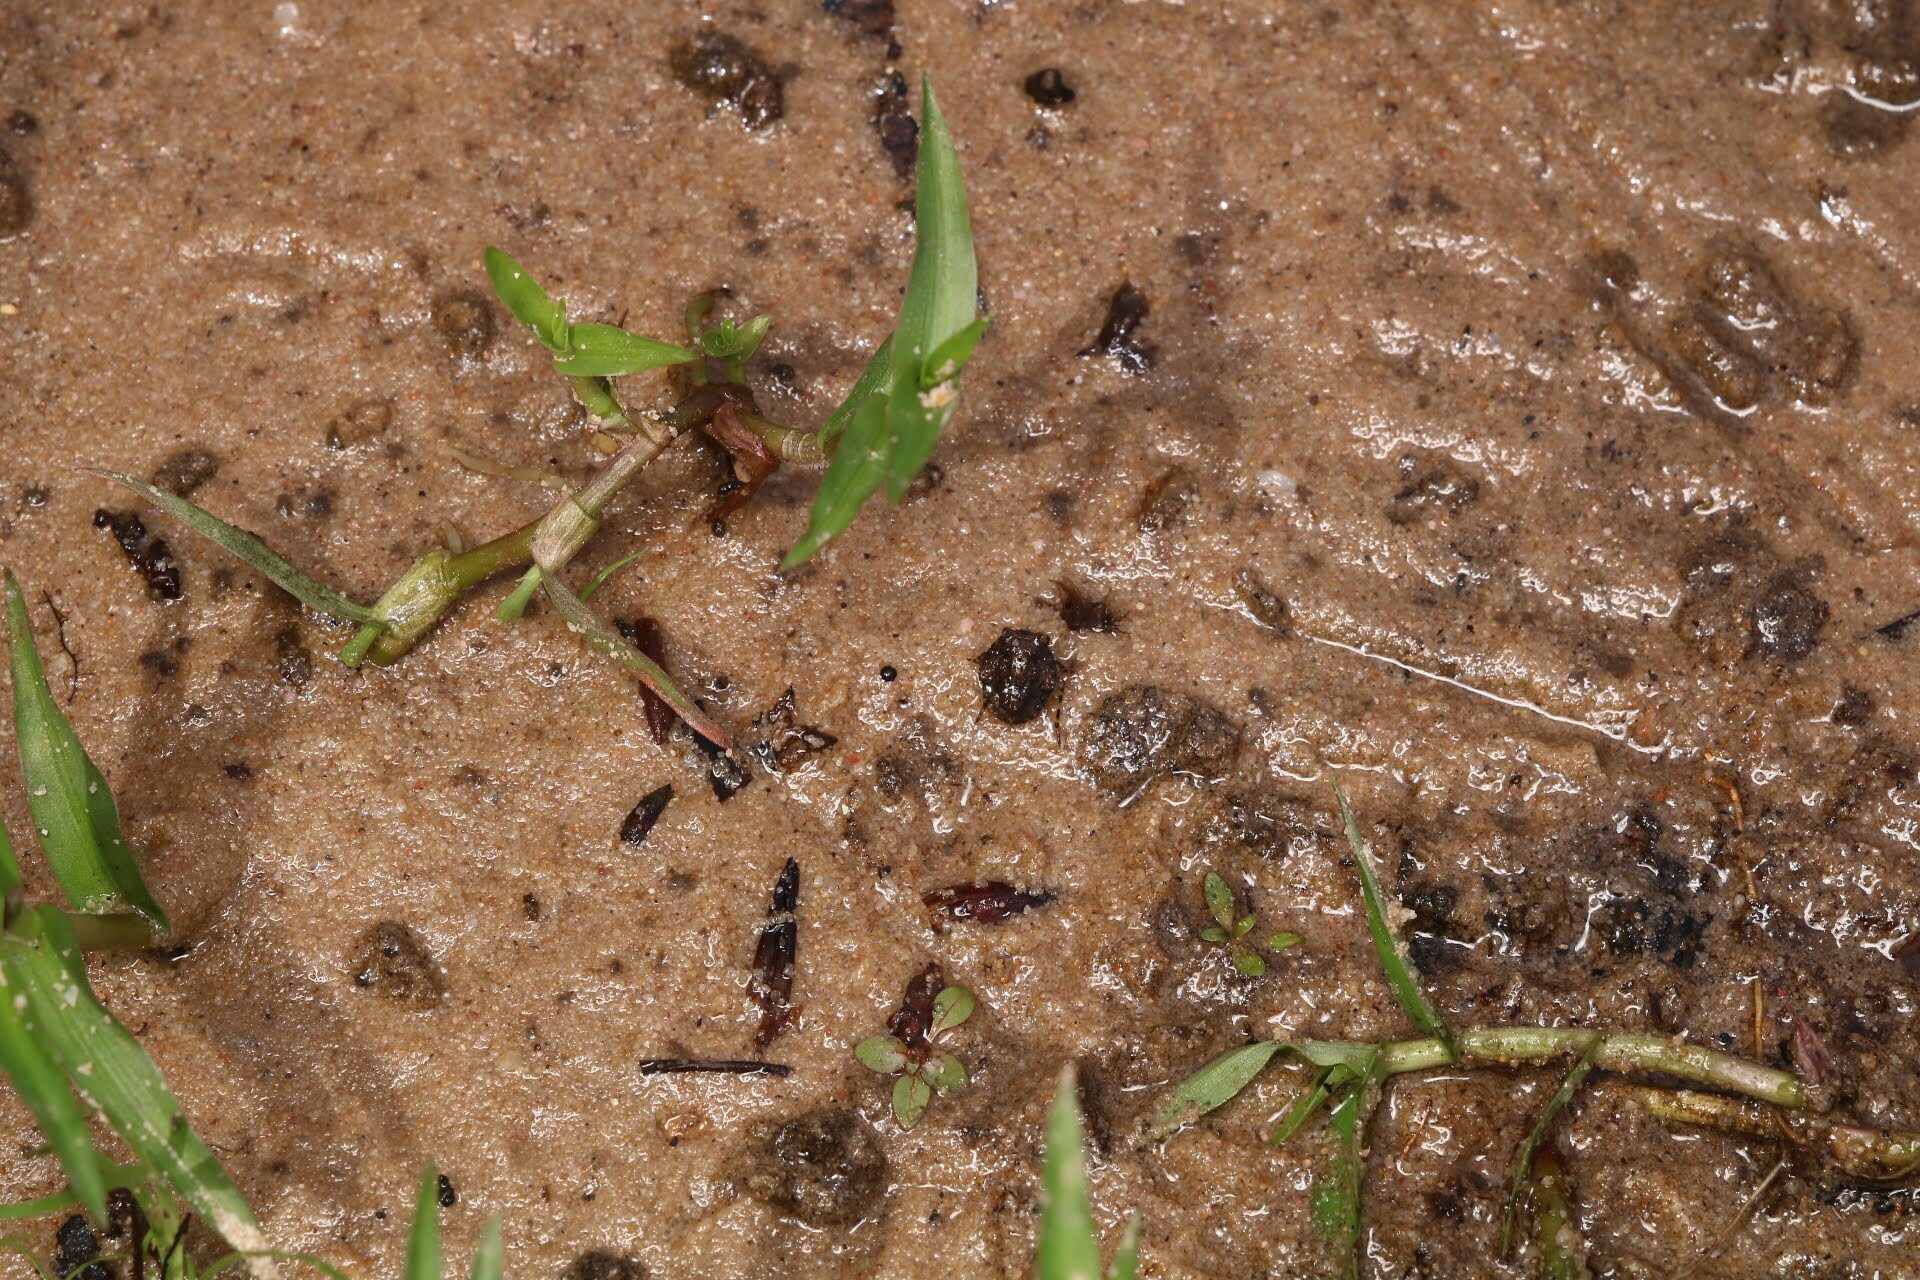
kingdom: Animalia
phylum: Arthropoda
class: Insecta
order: Hemiptera
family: Gelastocoridae
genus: Gelastocoris
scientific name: Gelastocoris oculatus
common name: Toad bug
